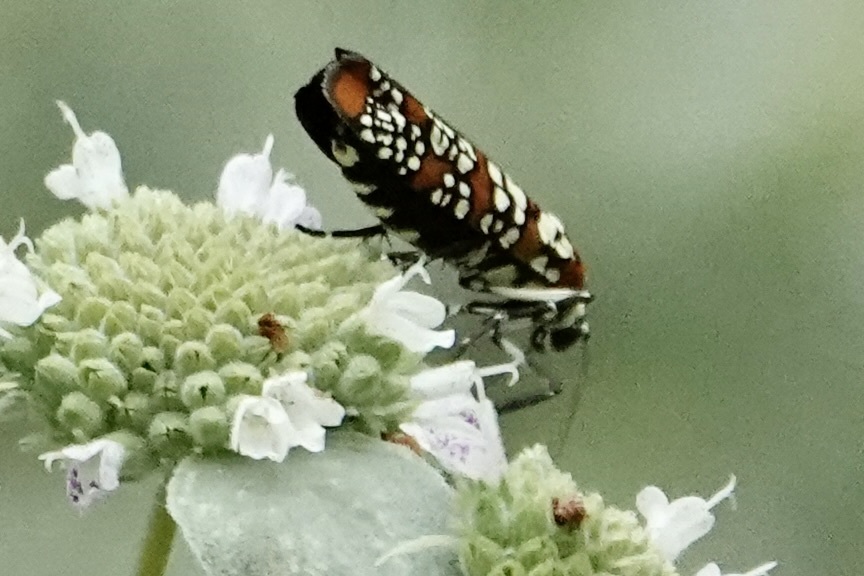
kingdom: Animalia
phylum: Arthropoda
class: Insecta
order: Lepidoptera
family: Attevidae
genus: Atteva
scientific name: Atteva punctella
